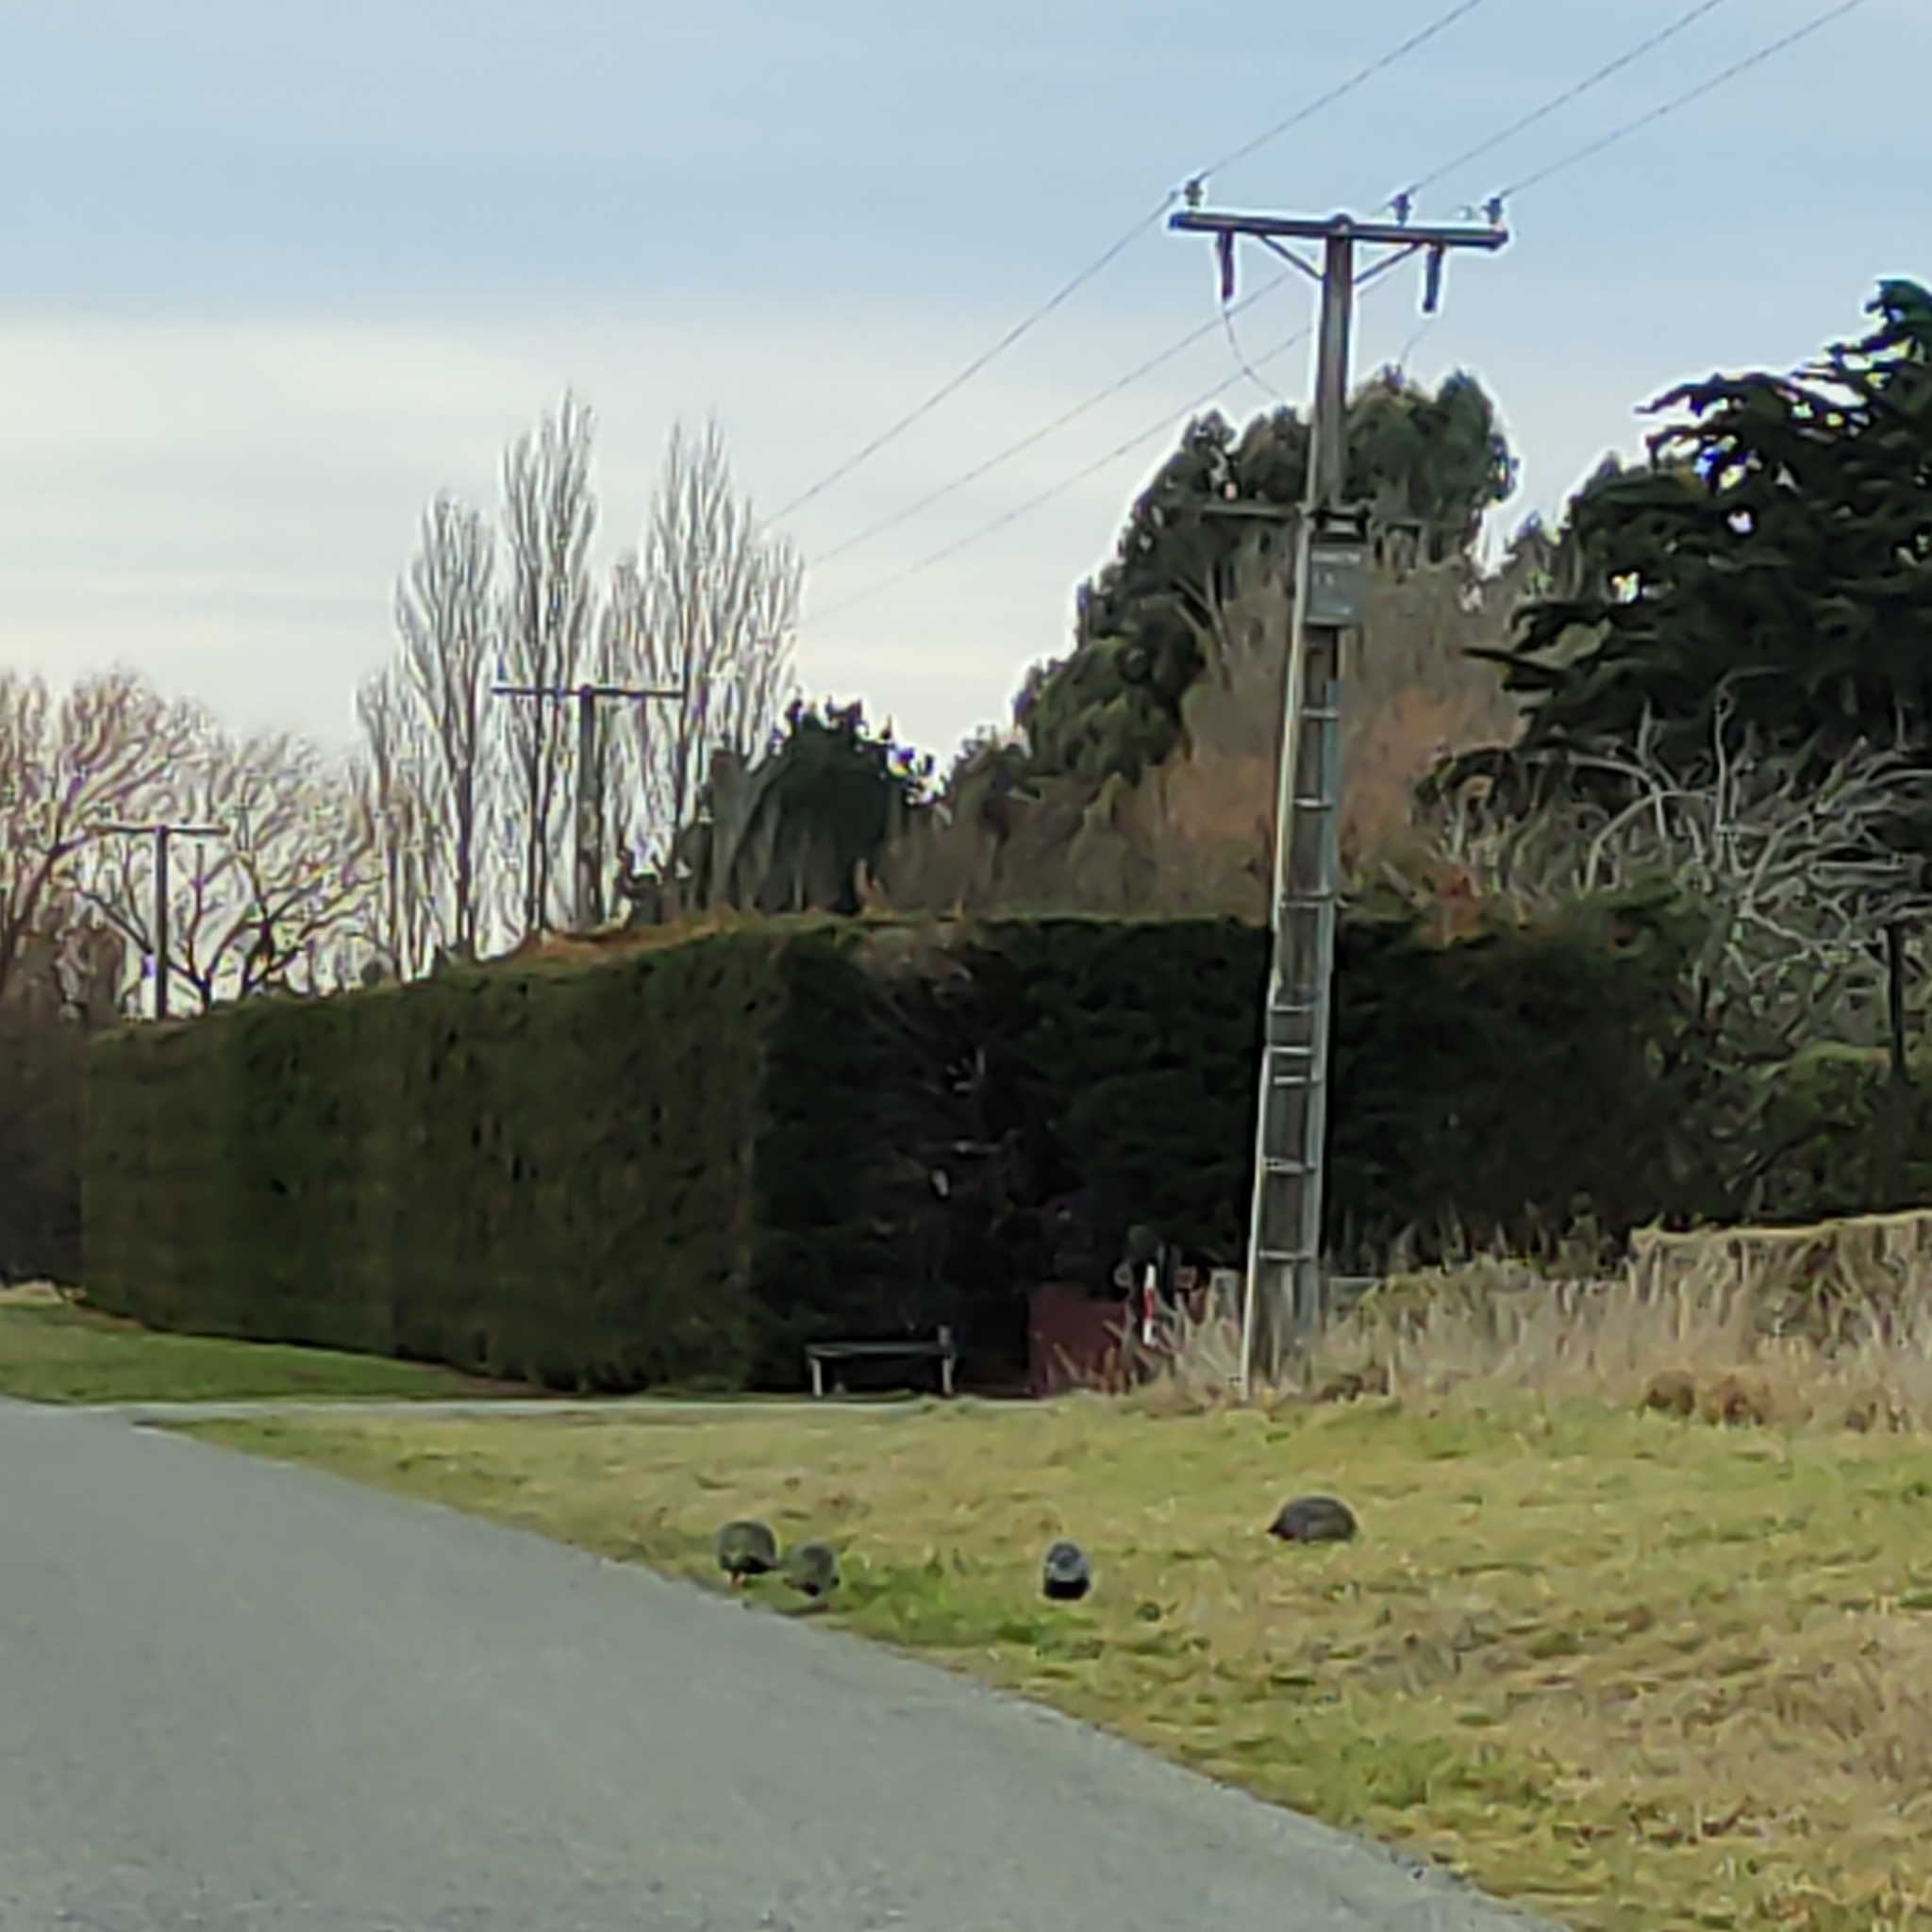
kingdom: Animalia
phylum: Chordata
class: Aves
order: Galliformes
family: Numididae
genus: Numida
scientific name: Numida meleagris
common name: Helmeted guineafowl
